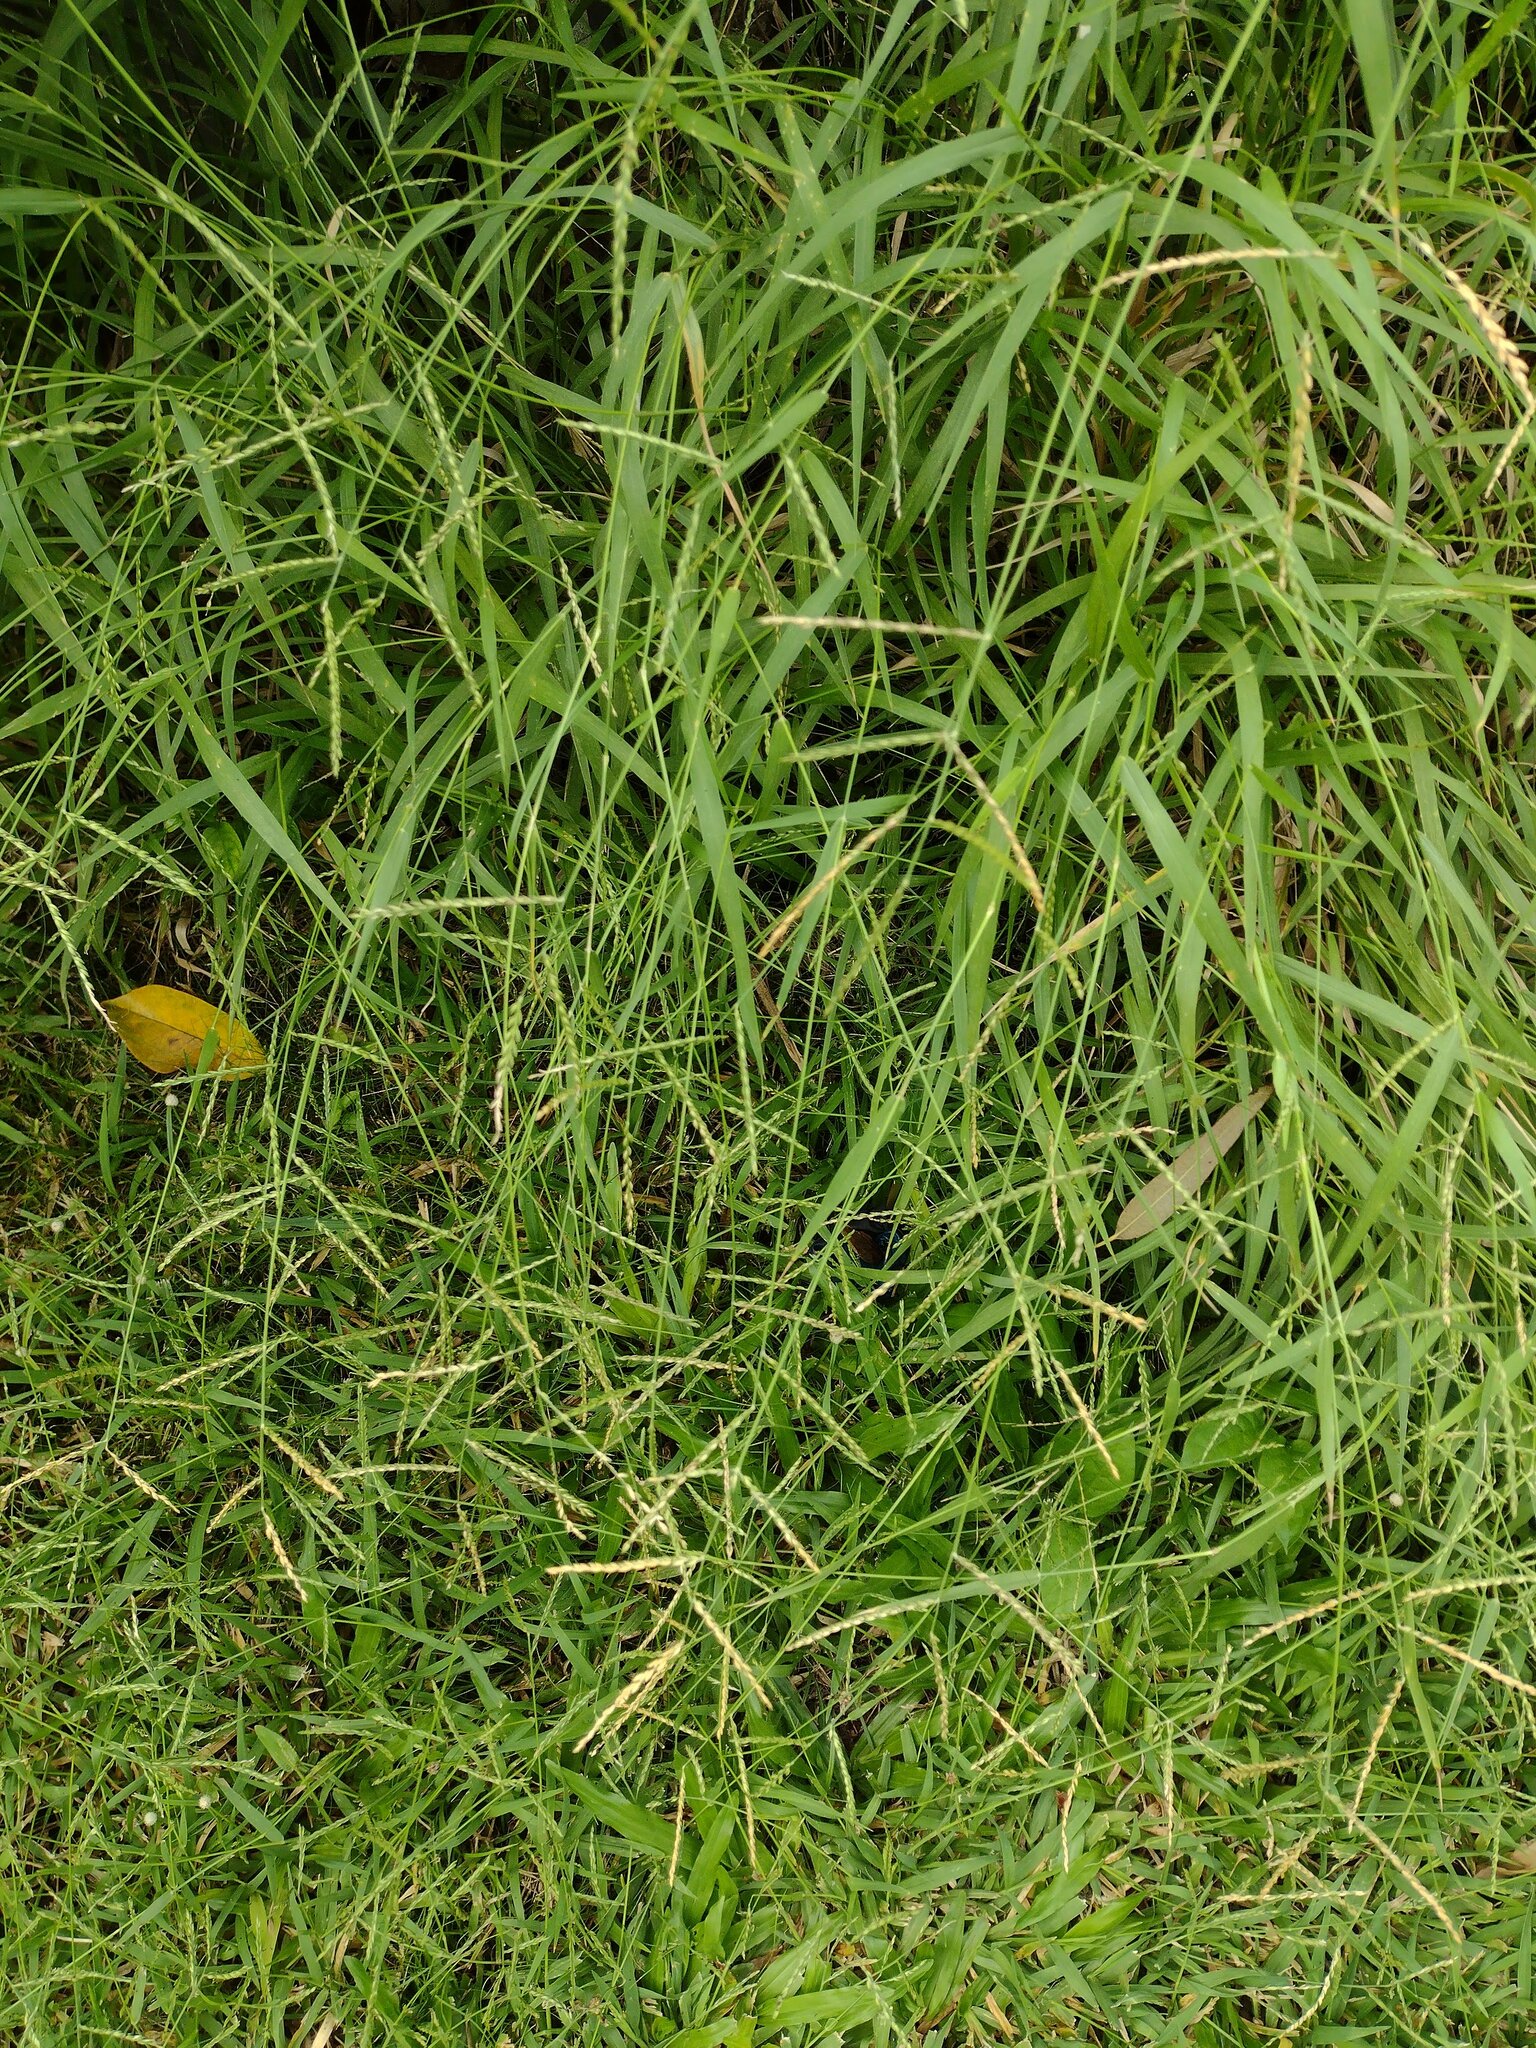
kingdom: Plantae
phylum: Tracheophyta
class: Liliopsida
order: Poales
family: Poaceae
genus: Urochloa
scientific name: Urochloa glumaris
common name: Thurston grass
